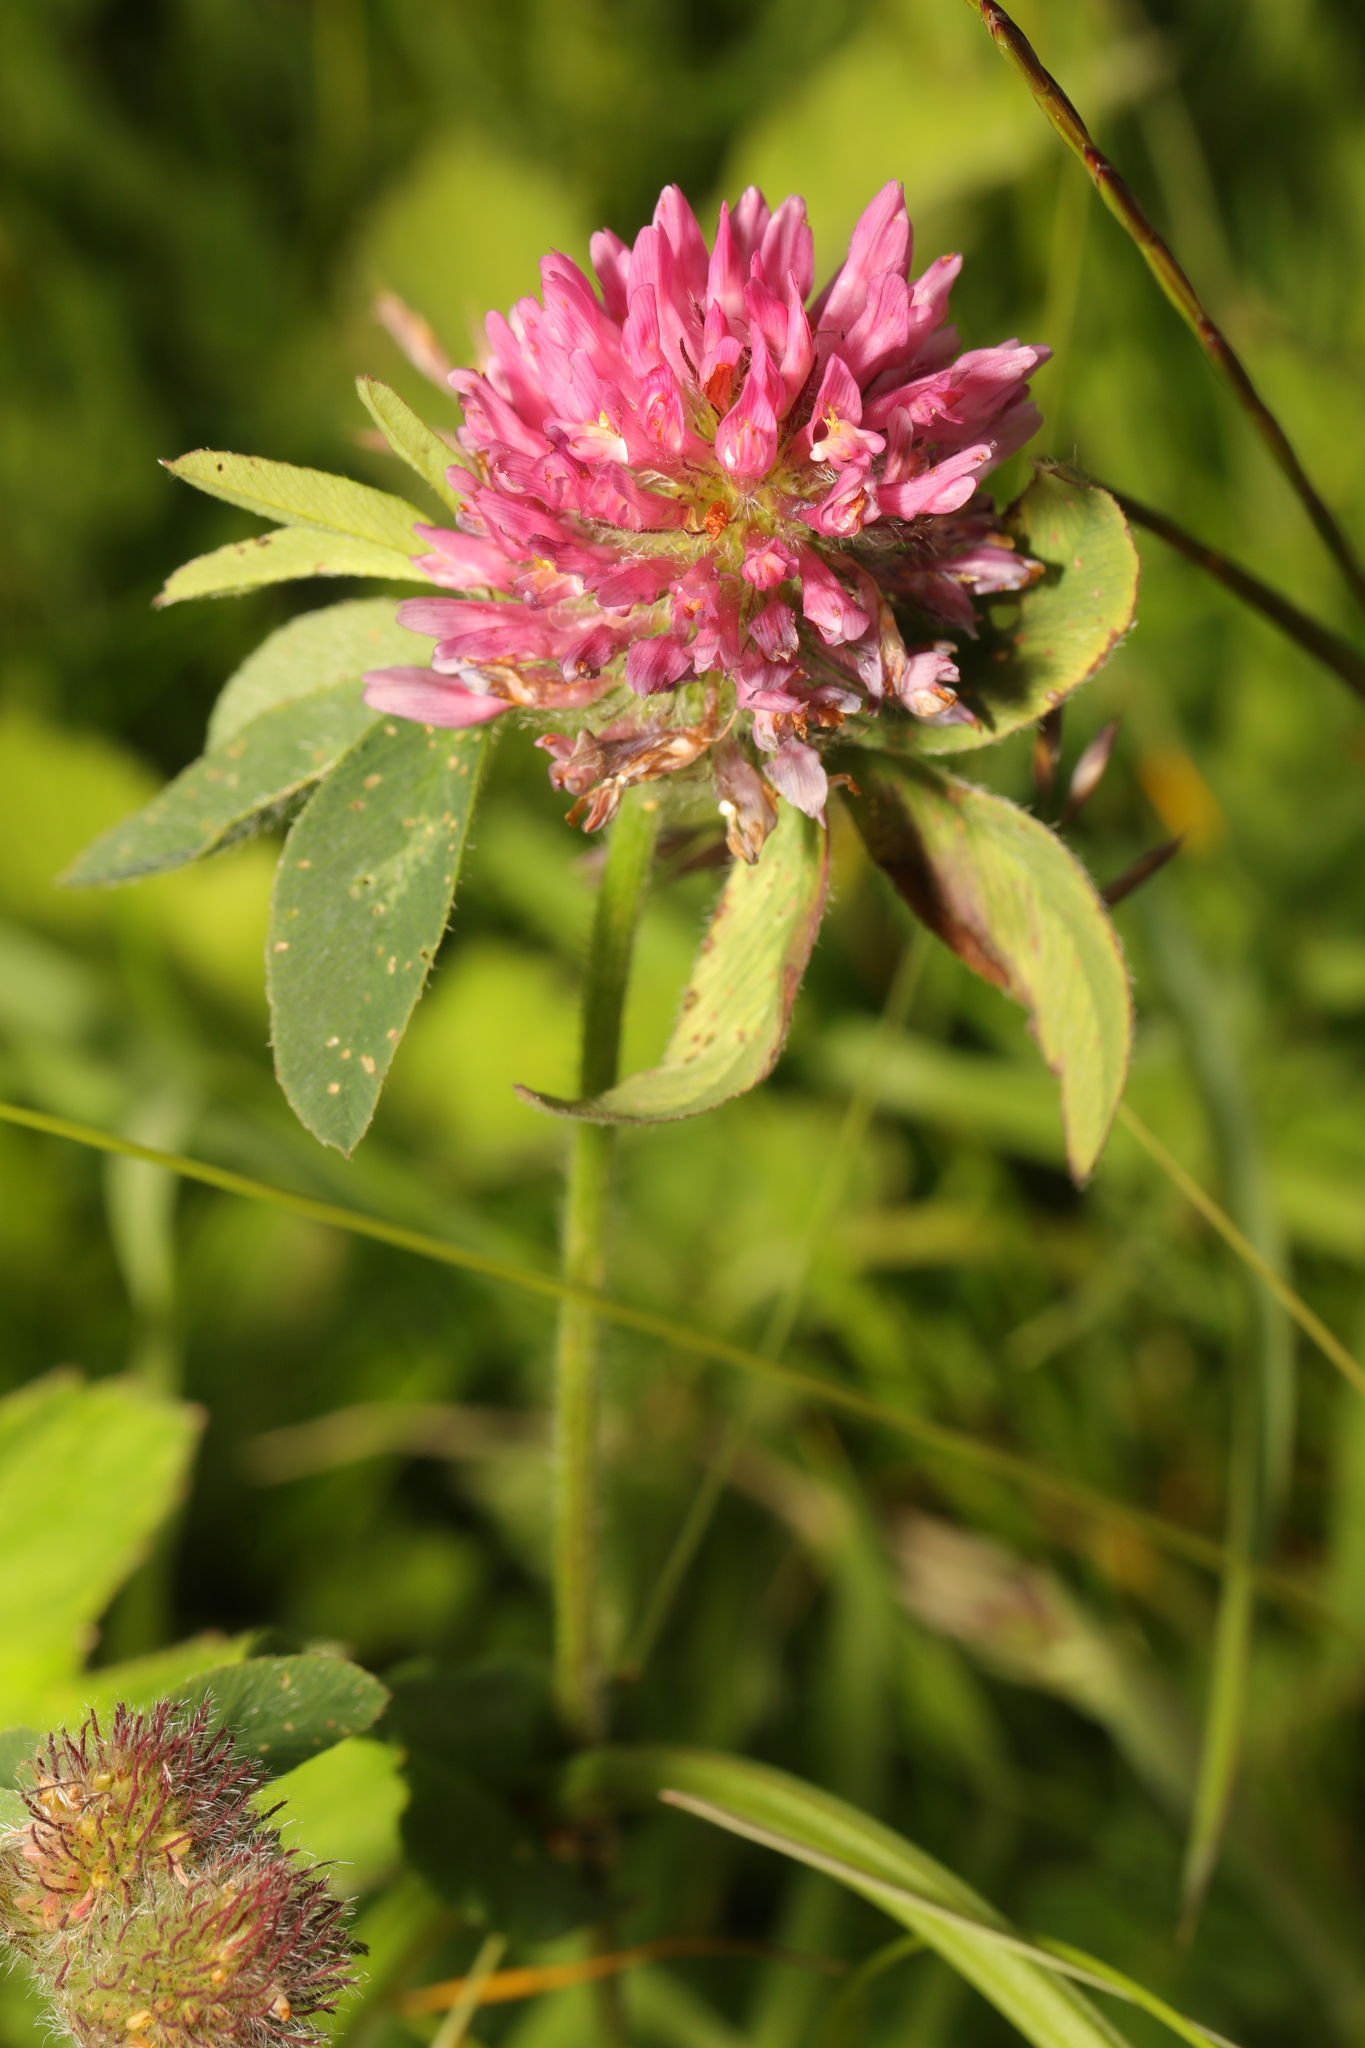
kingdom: Plantae
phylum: Tracheophyta
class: Magnoliopsida
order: Fabales
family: Fabaceae
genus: Trifolium
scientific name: Trifolium pratense
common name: Red clover
